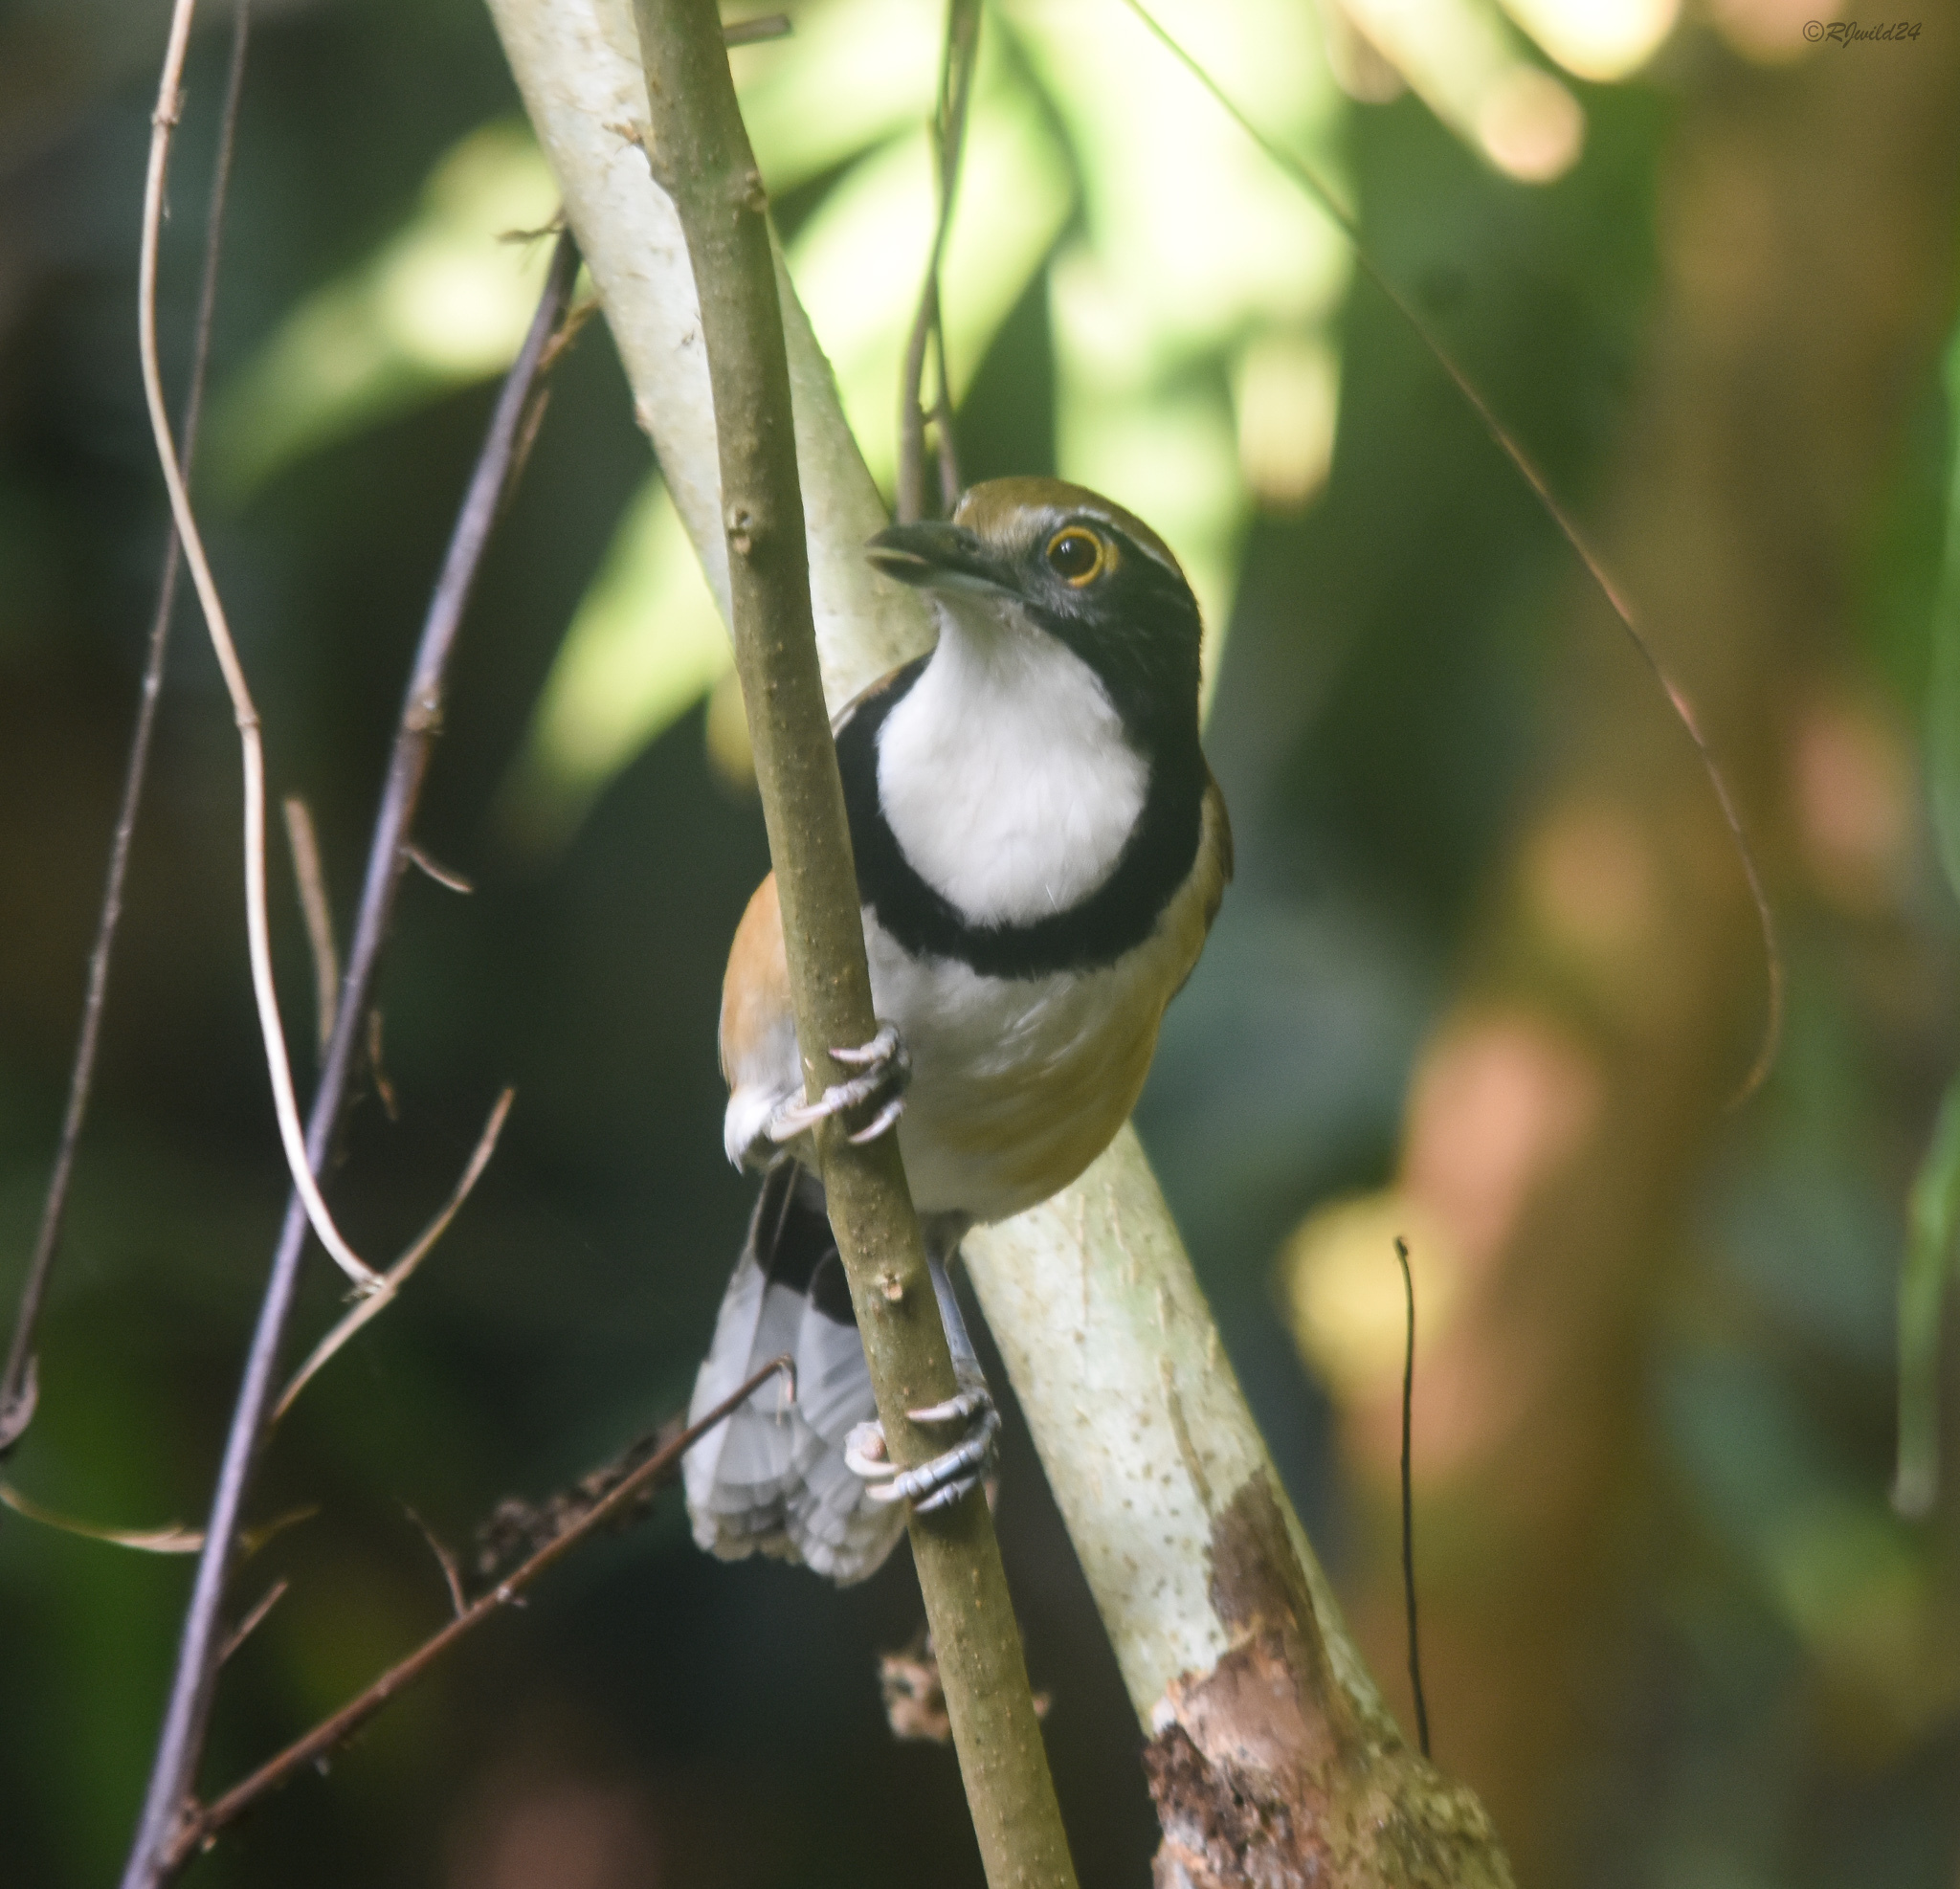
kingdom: Animalia
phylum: Chordata
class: Aves
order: Passeriformes
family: Leiothrichidae
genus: Garrulax
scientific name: Garrulax pectoralis
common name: Greater necklaced laughingthrush
